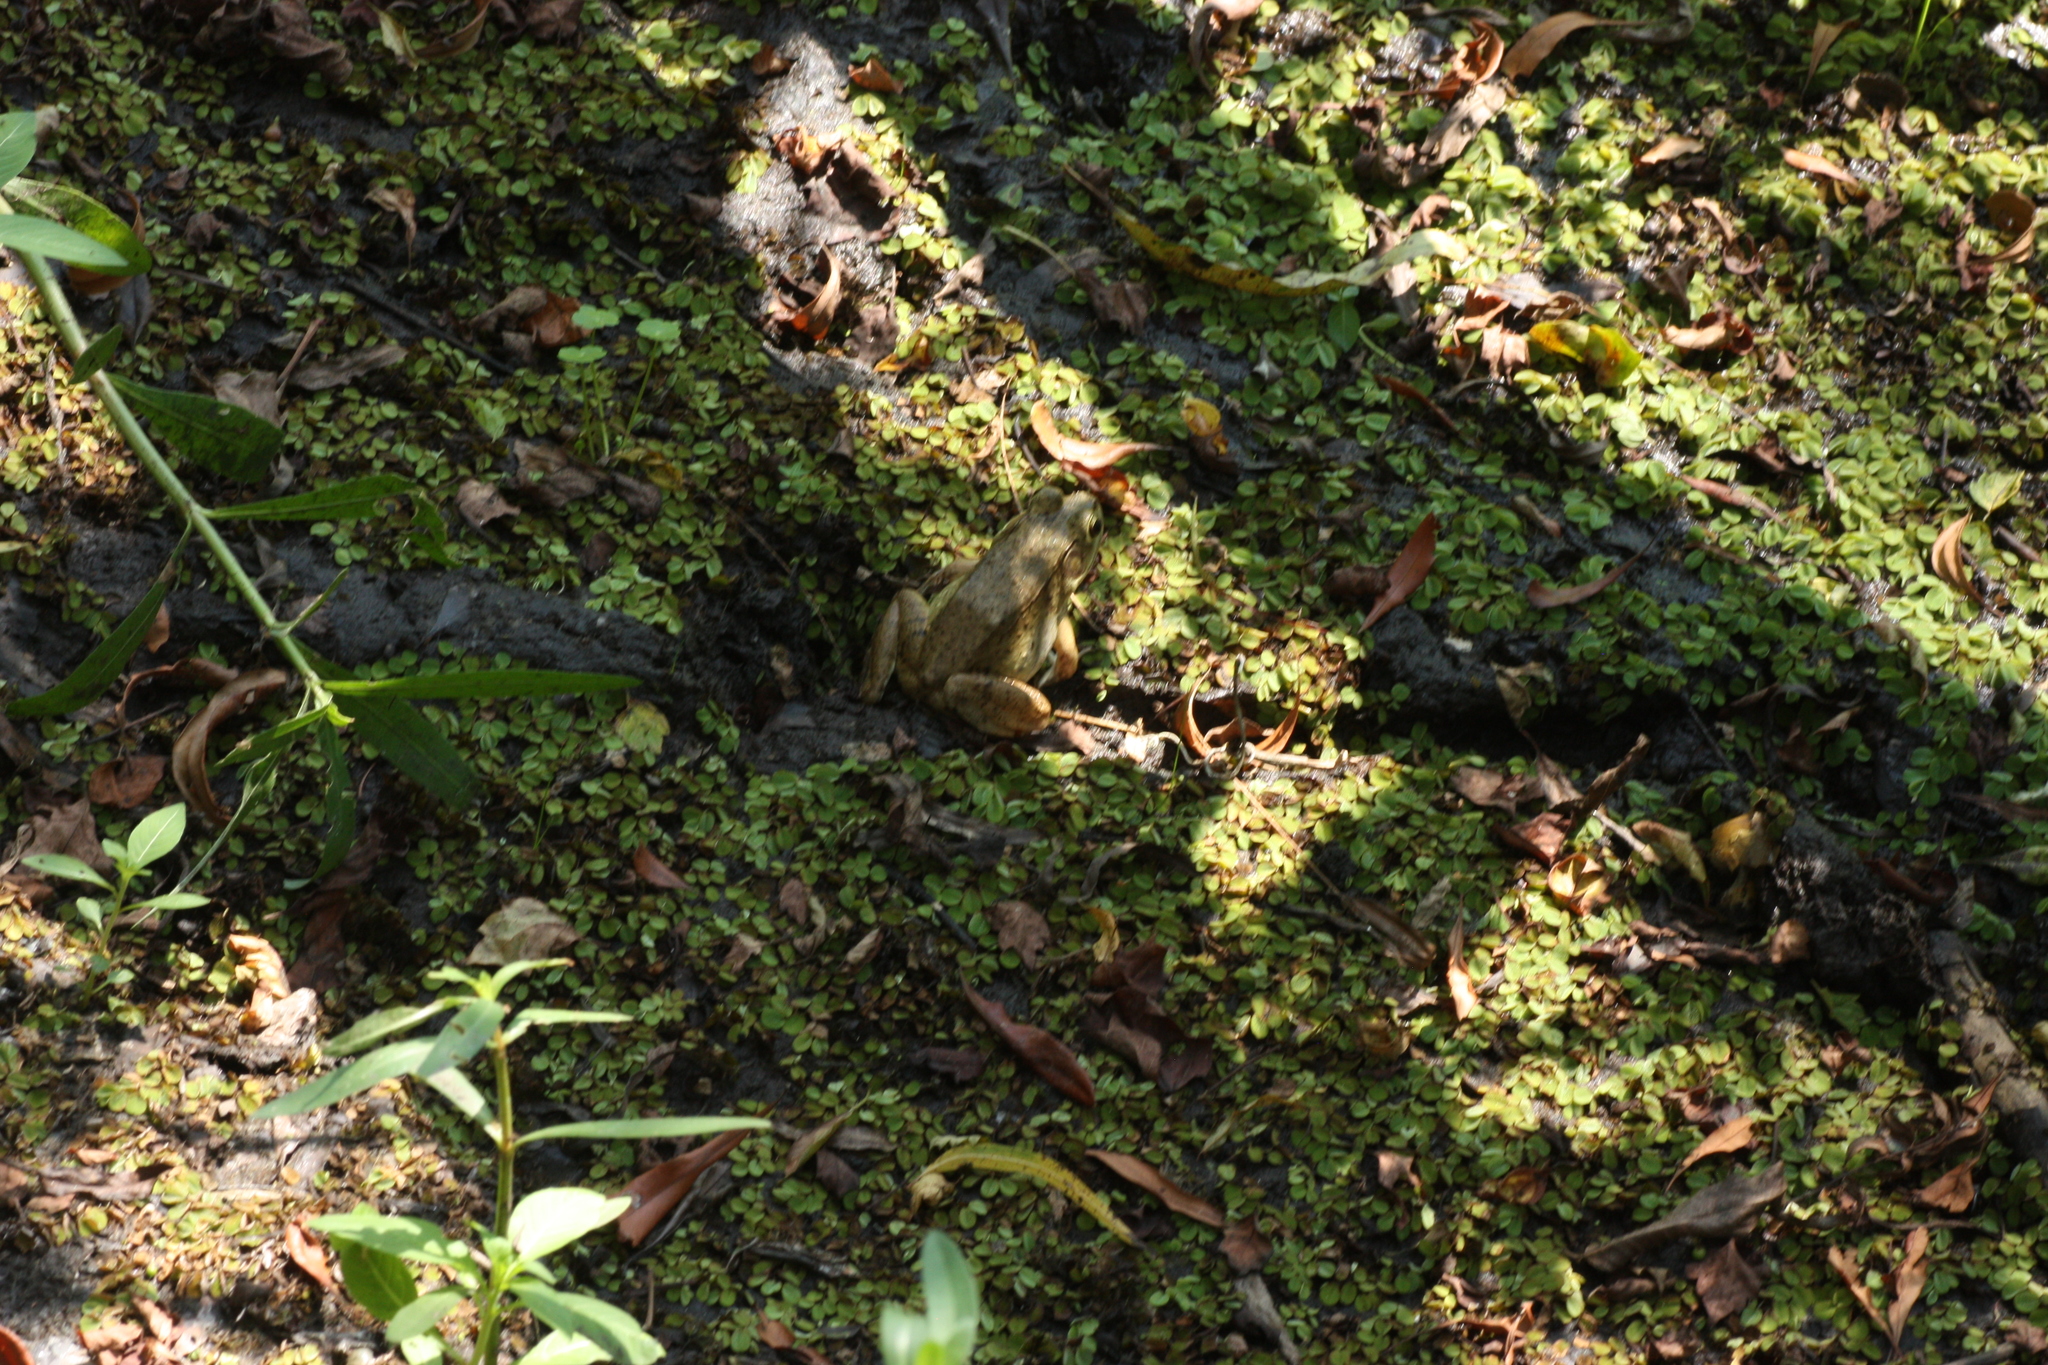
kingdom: Animalia
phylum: Chordata
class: Amphibia
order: Anura
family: Ranidae
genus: Lithobates
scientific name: Lithobates clamitans
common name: Green frog
